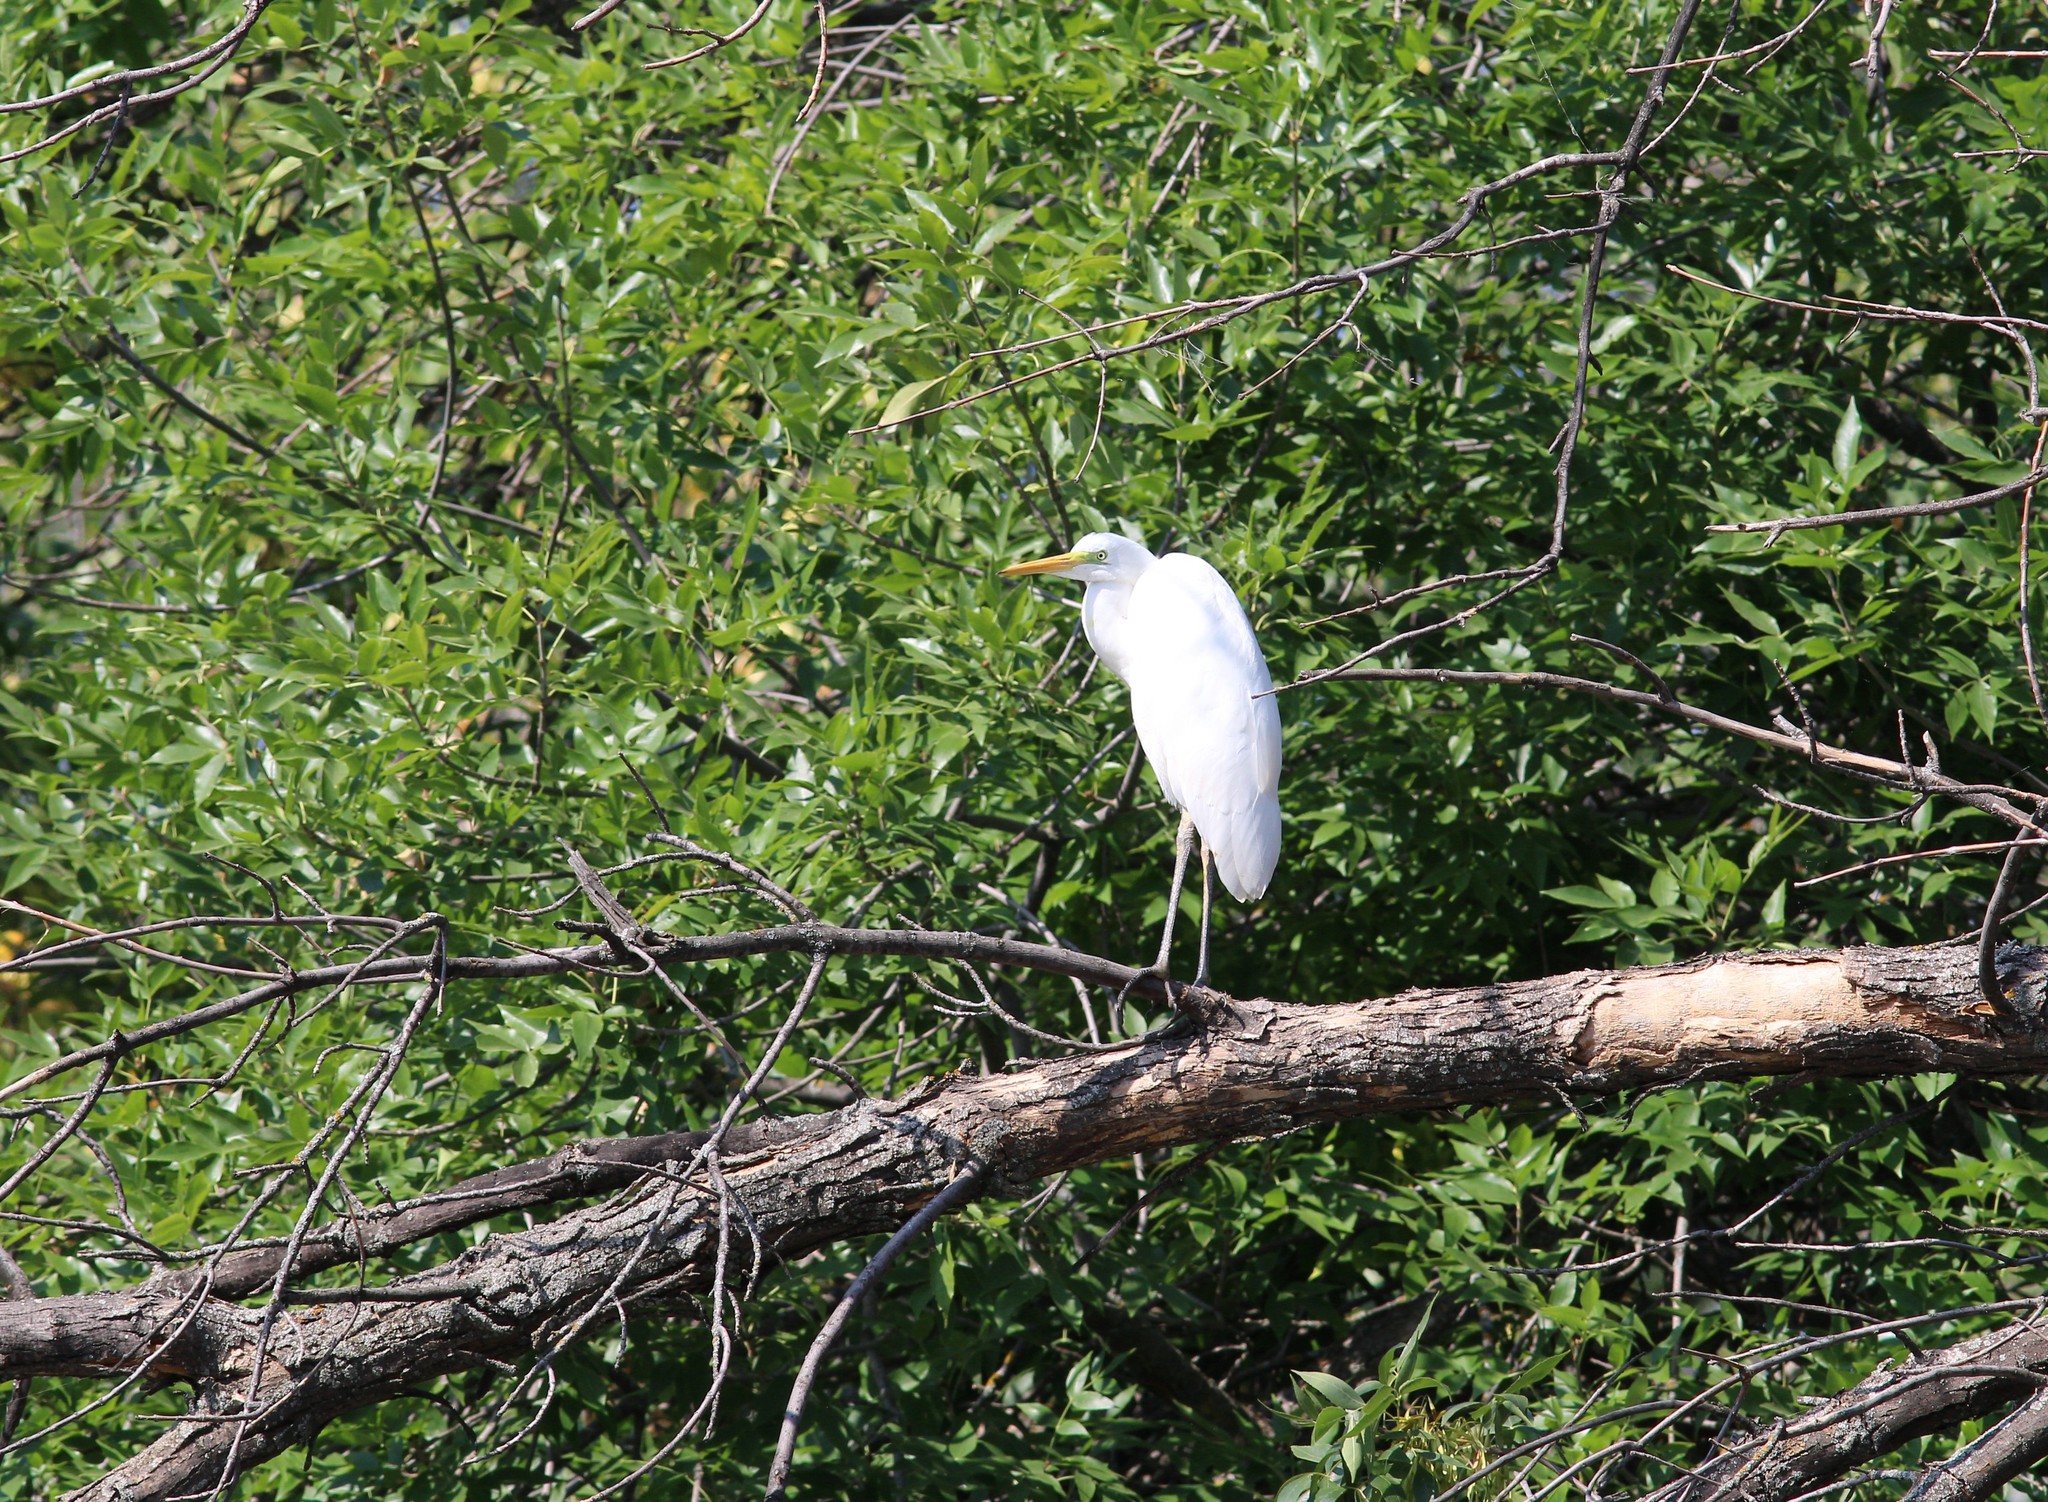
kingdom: Animalia
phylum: Chordata
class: Aves
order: Pelecaniformes
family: Ardeidae
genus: Ardea
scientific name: Ardea alba
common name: Great egret
